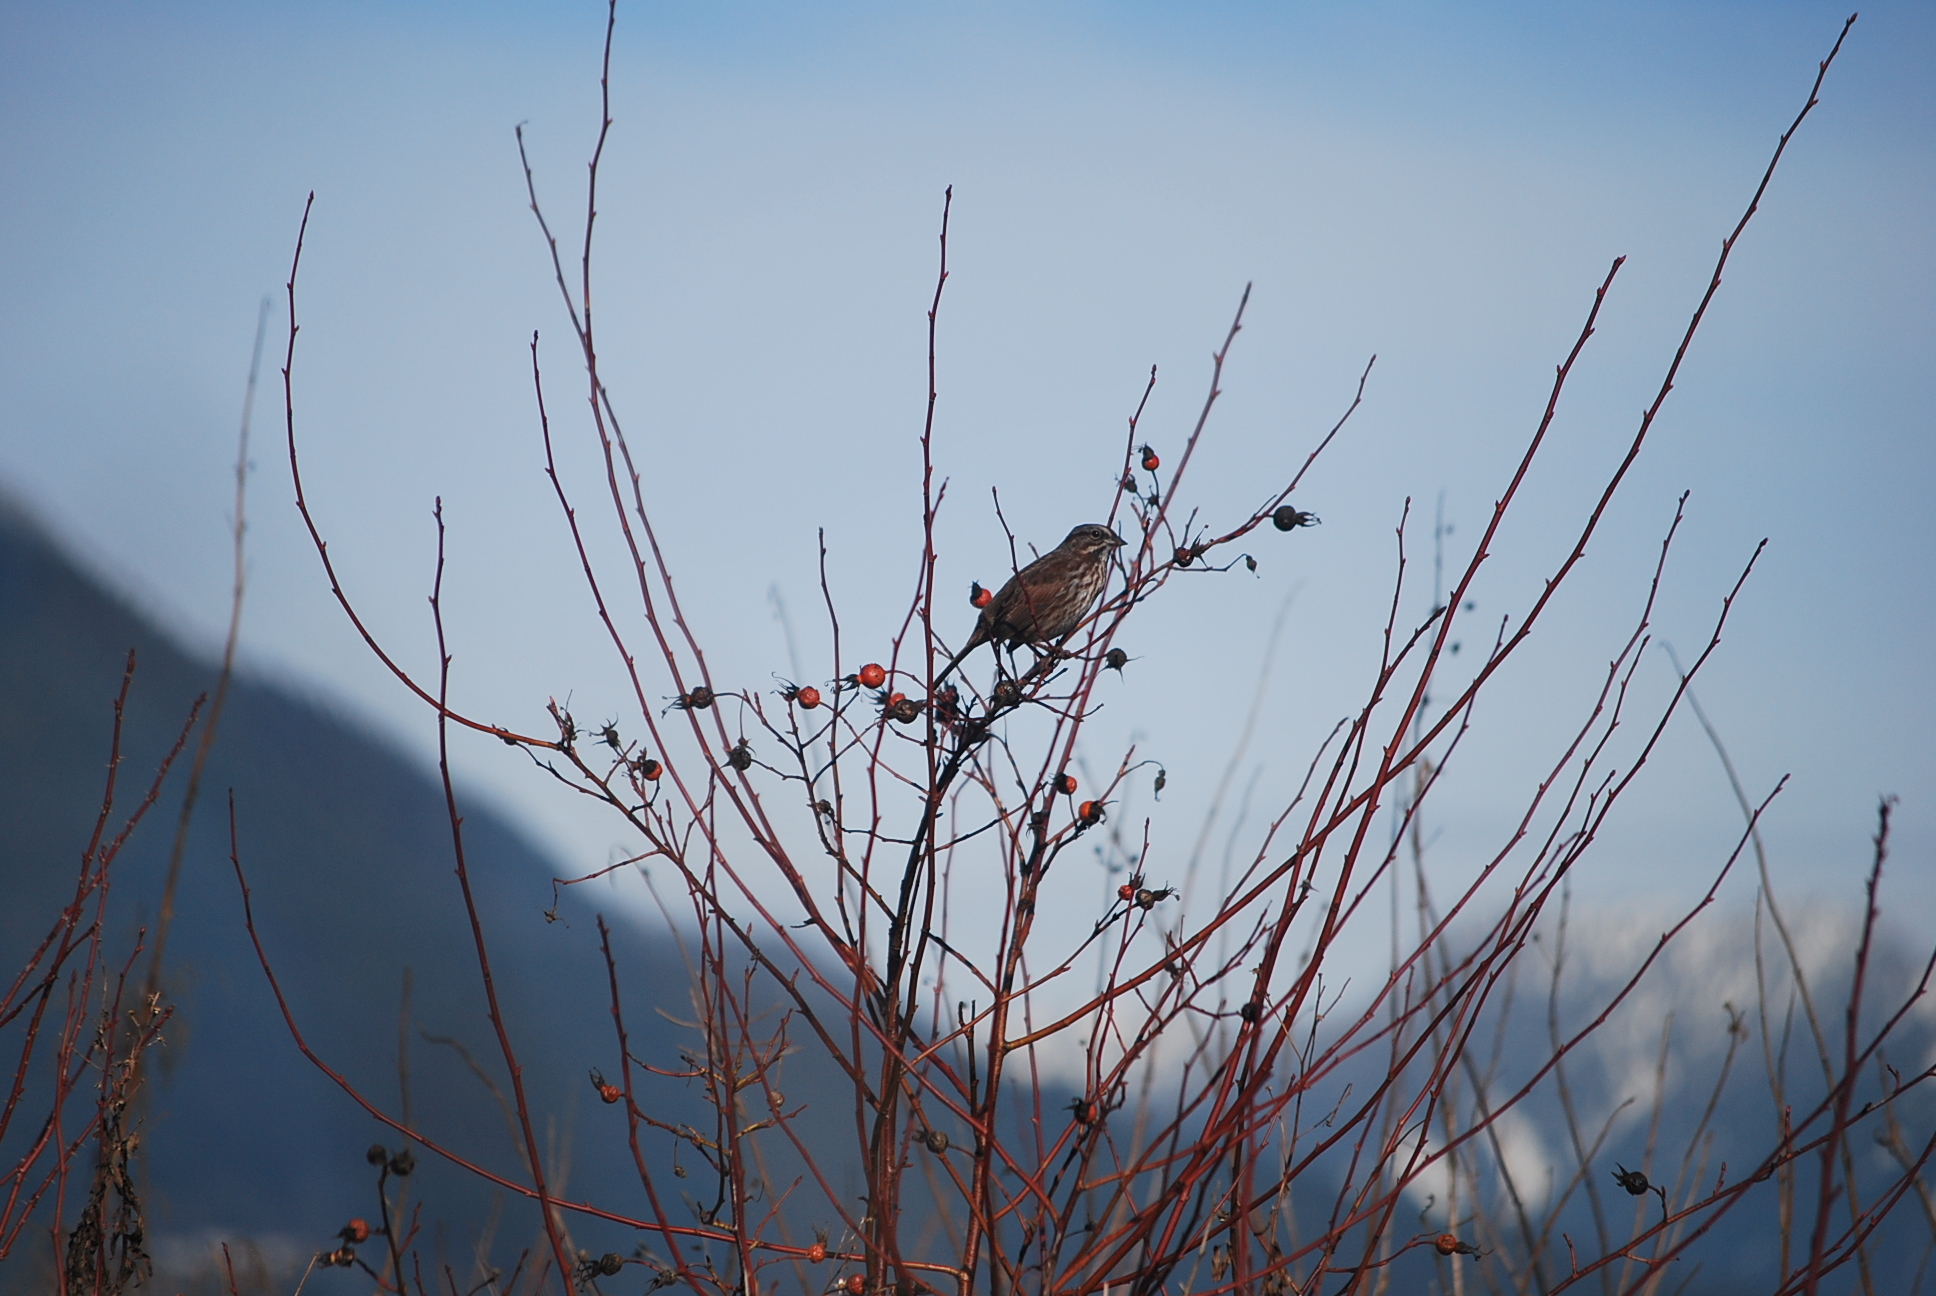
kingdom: Animalia
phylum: Chordata
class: Aves
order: Passeriformes
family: Passerellidae
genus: Melospiza
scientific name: Melospiza melodia
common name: Song sparrow
